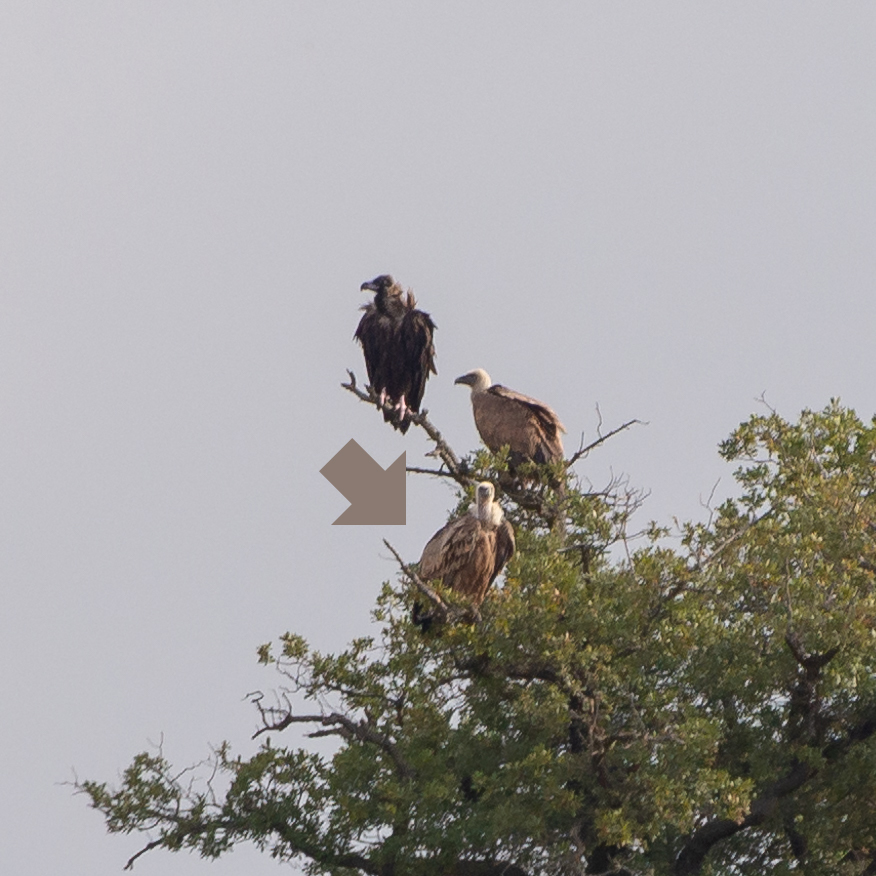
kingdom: Animalia
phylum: Chordata
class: Aves
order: Accipitriformes
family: Accipitridae
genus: Gyps
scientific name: Gyps fulvus
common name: Griffon vulture
